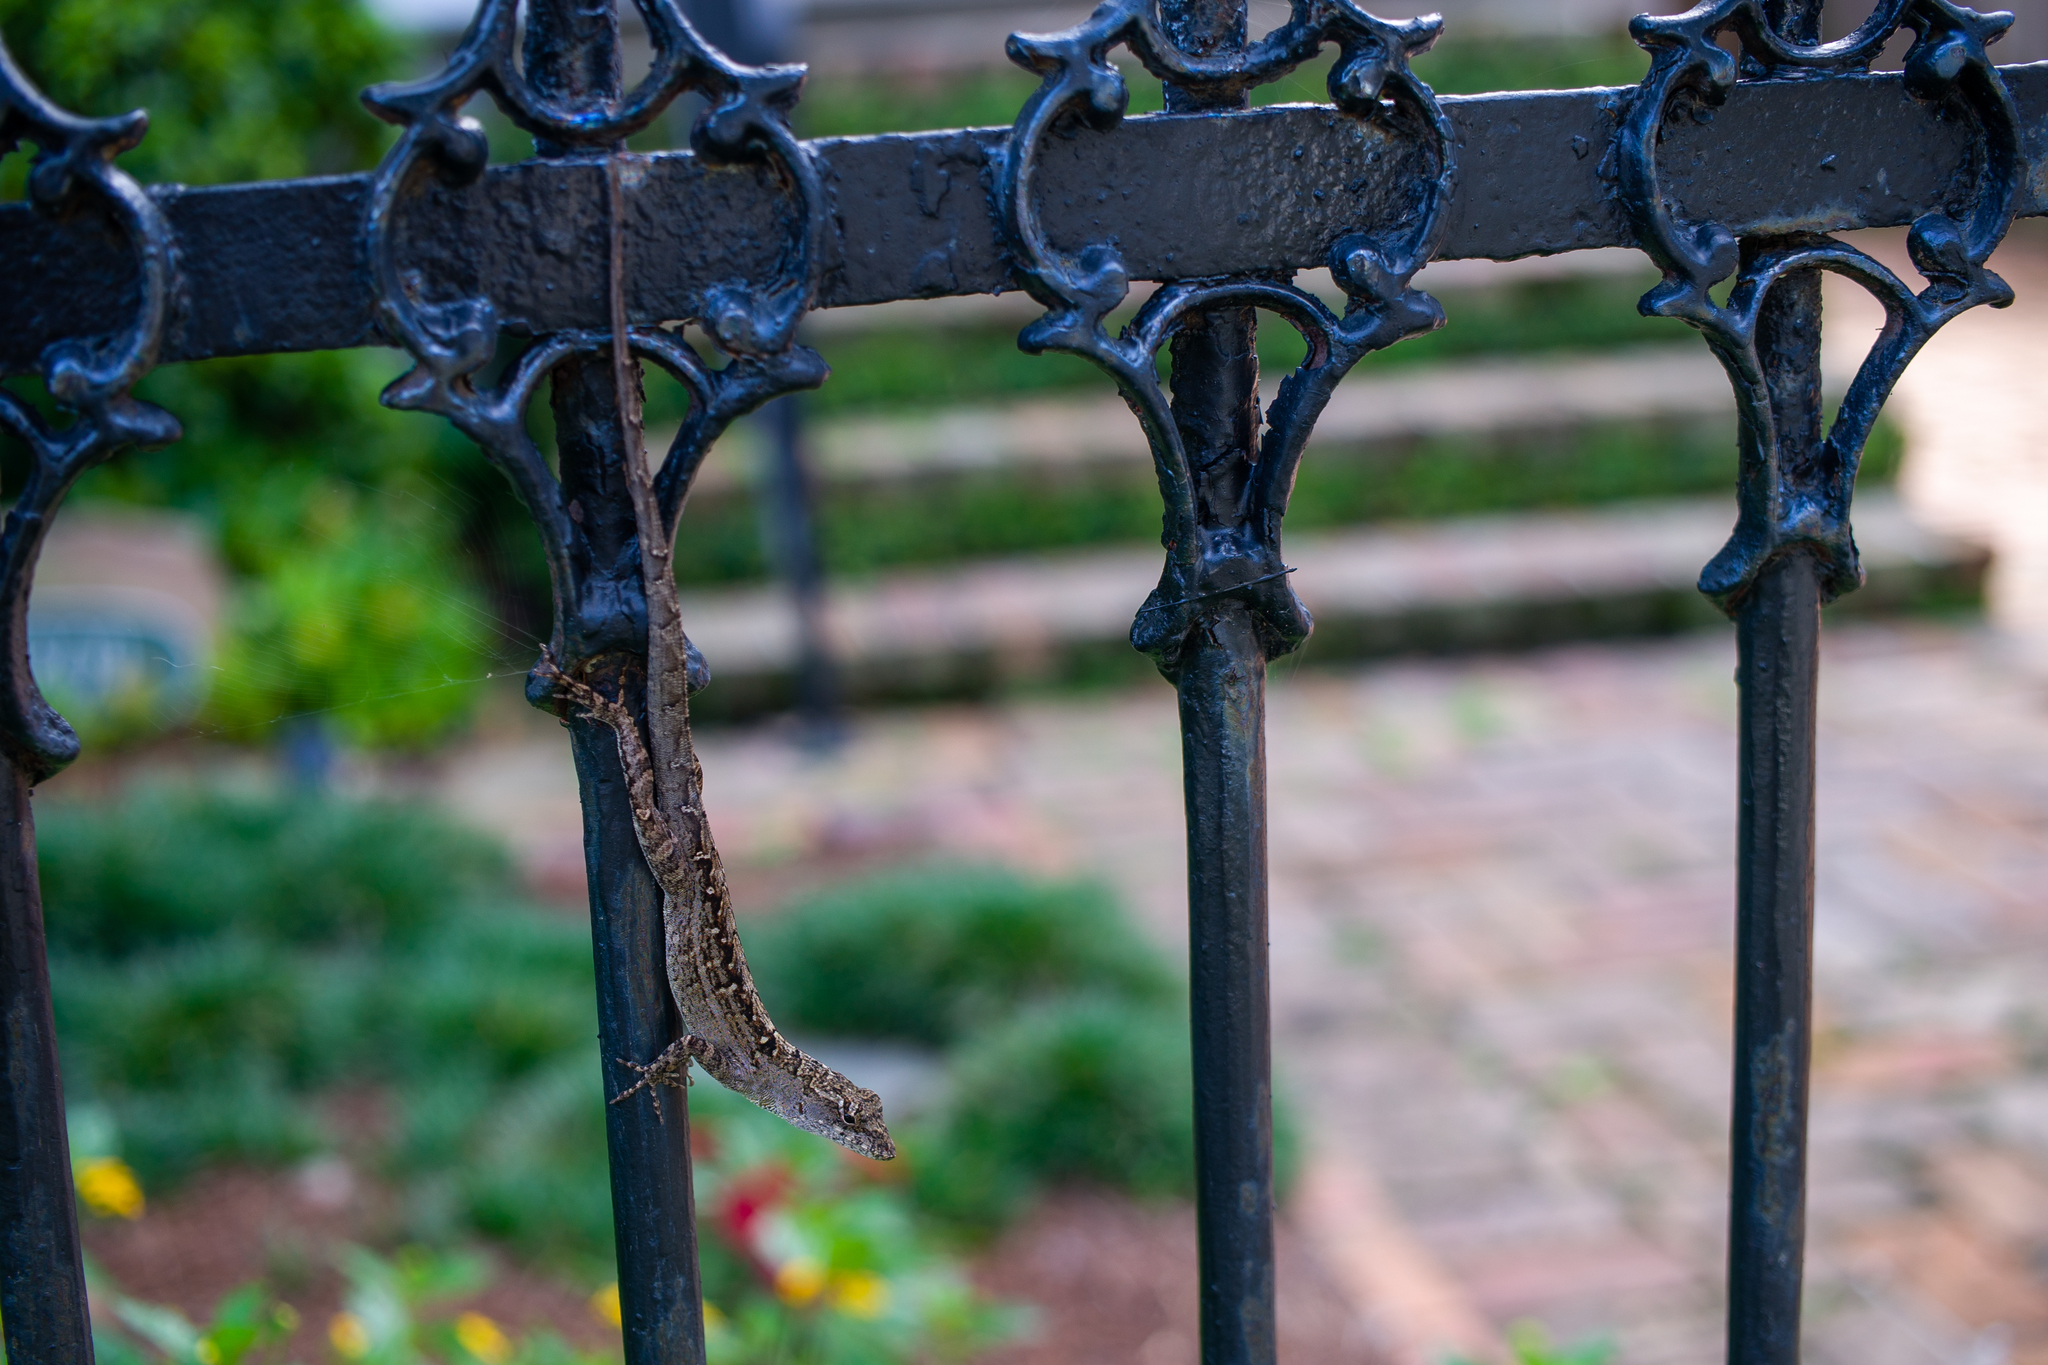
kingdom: Animalia
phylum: Chordata
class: Squamata
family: Dactyloidae
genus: Anolis
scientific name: Anolis sagrei
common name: Brown anole
